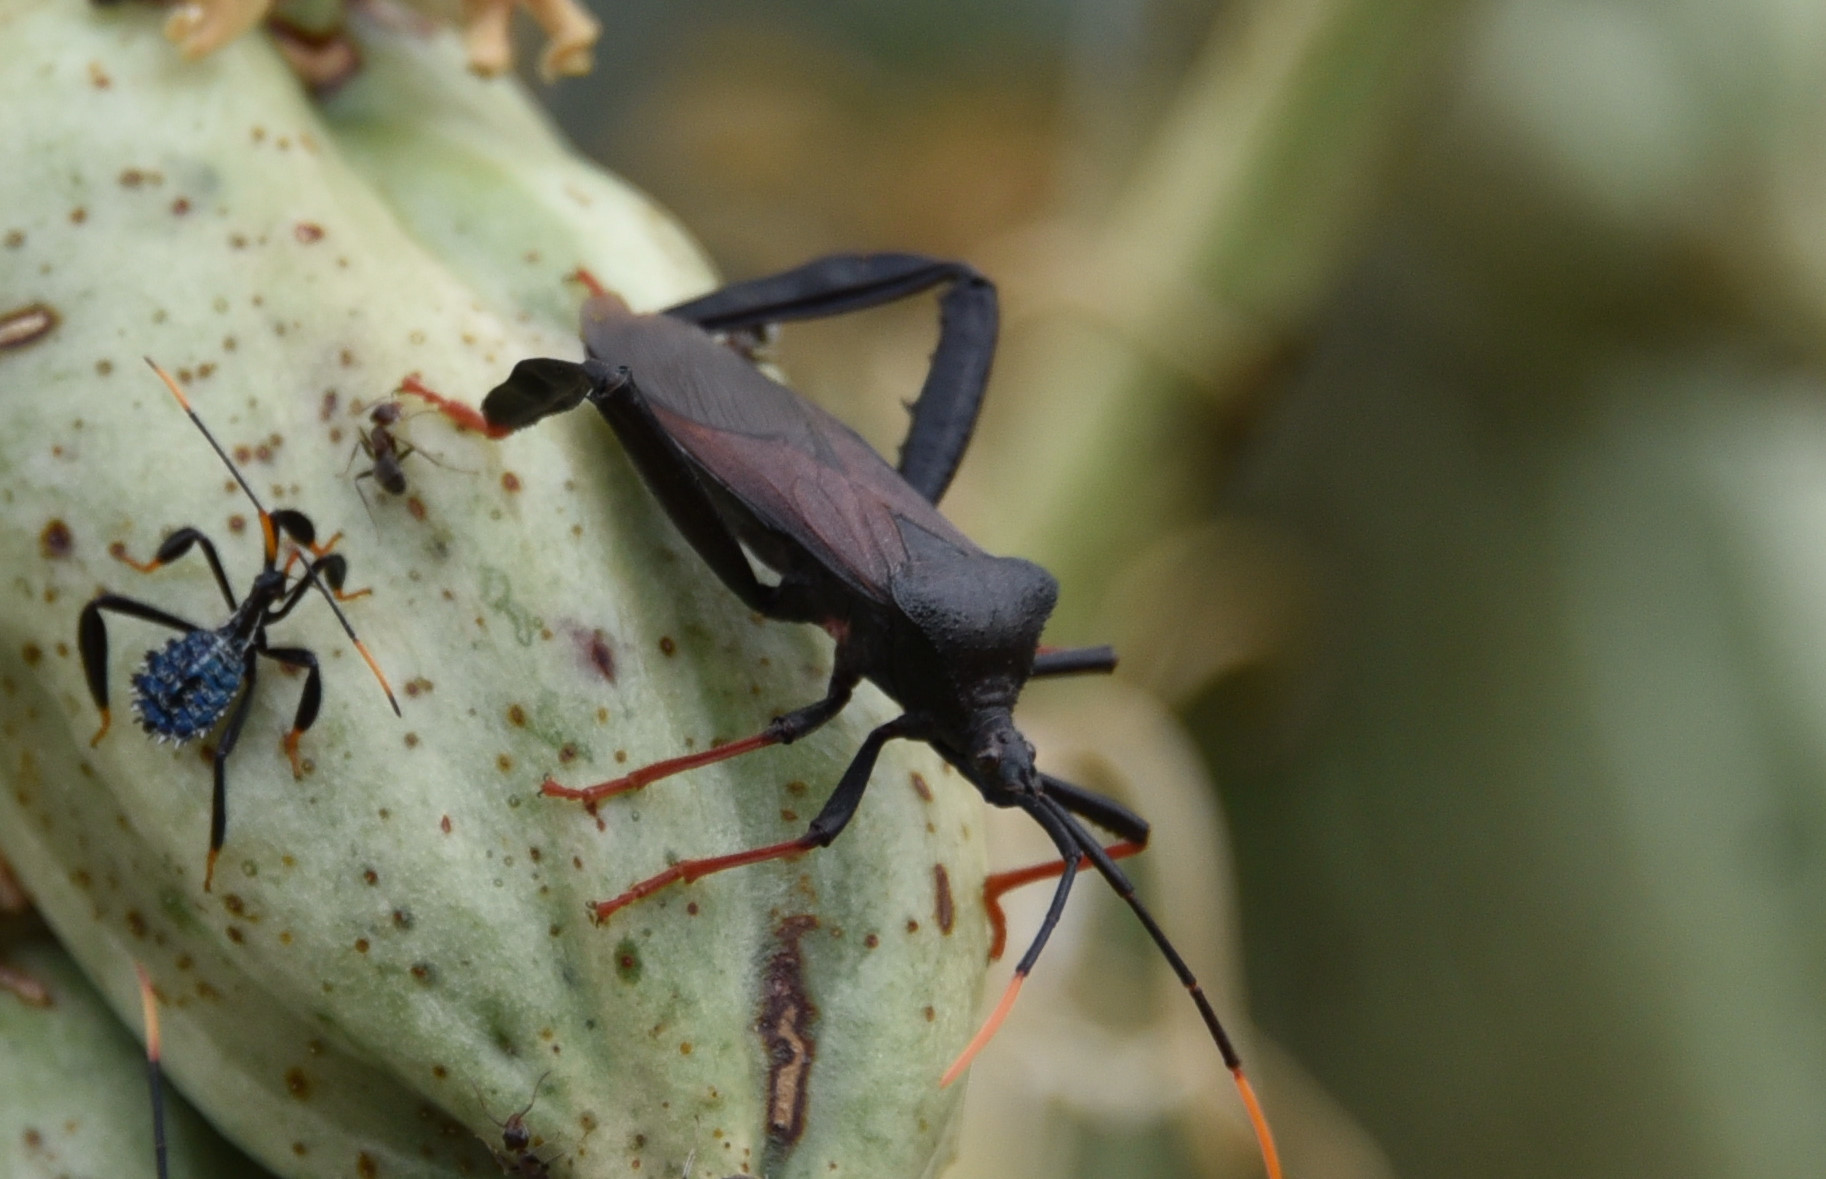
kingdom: Animalia
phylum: Arthropoda
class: Insecta
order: Hemiptera
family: Coreidae
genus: Acanthocephala
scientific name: Acanthocephala thomasi
